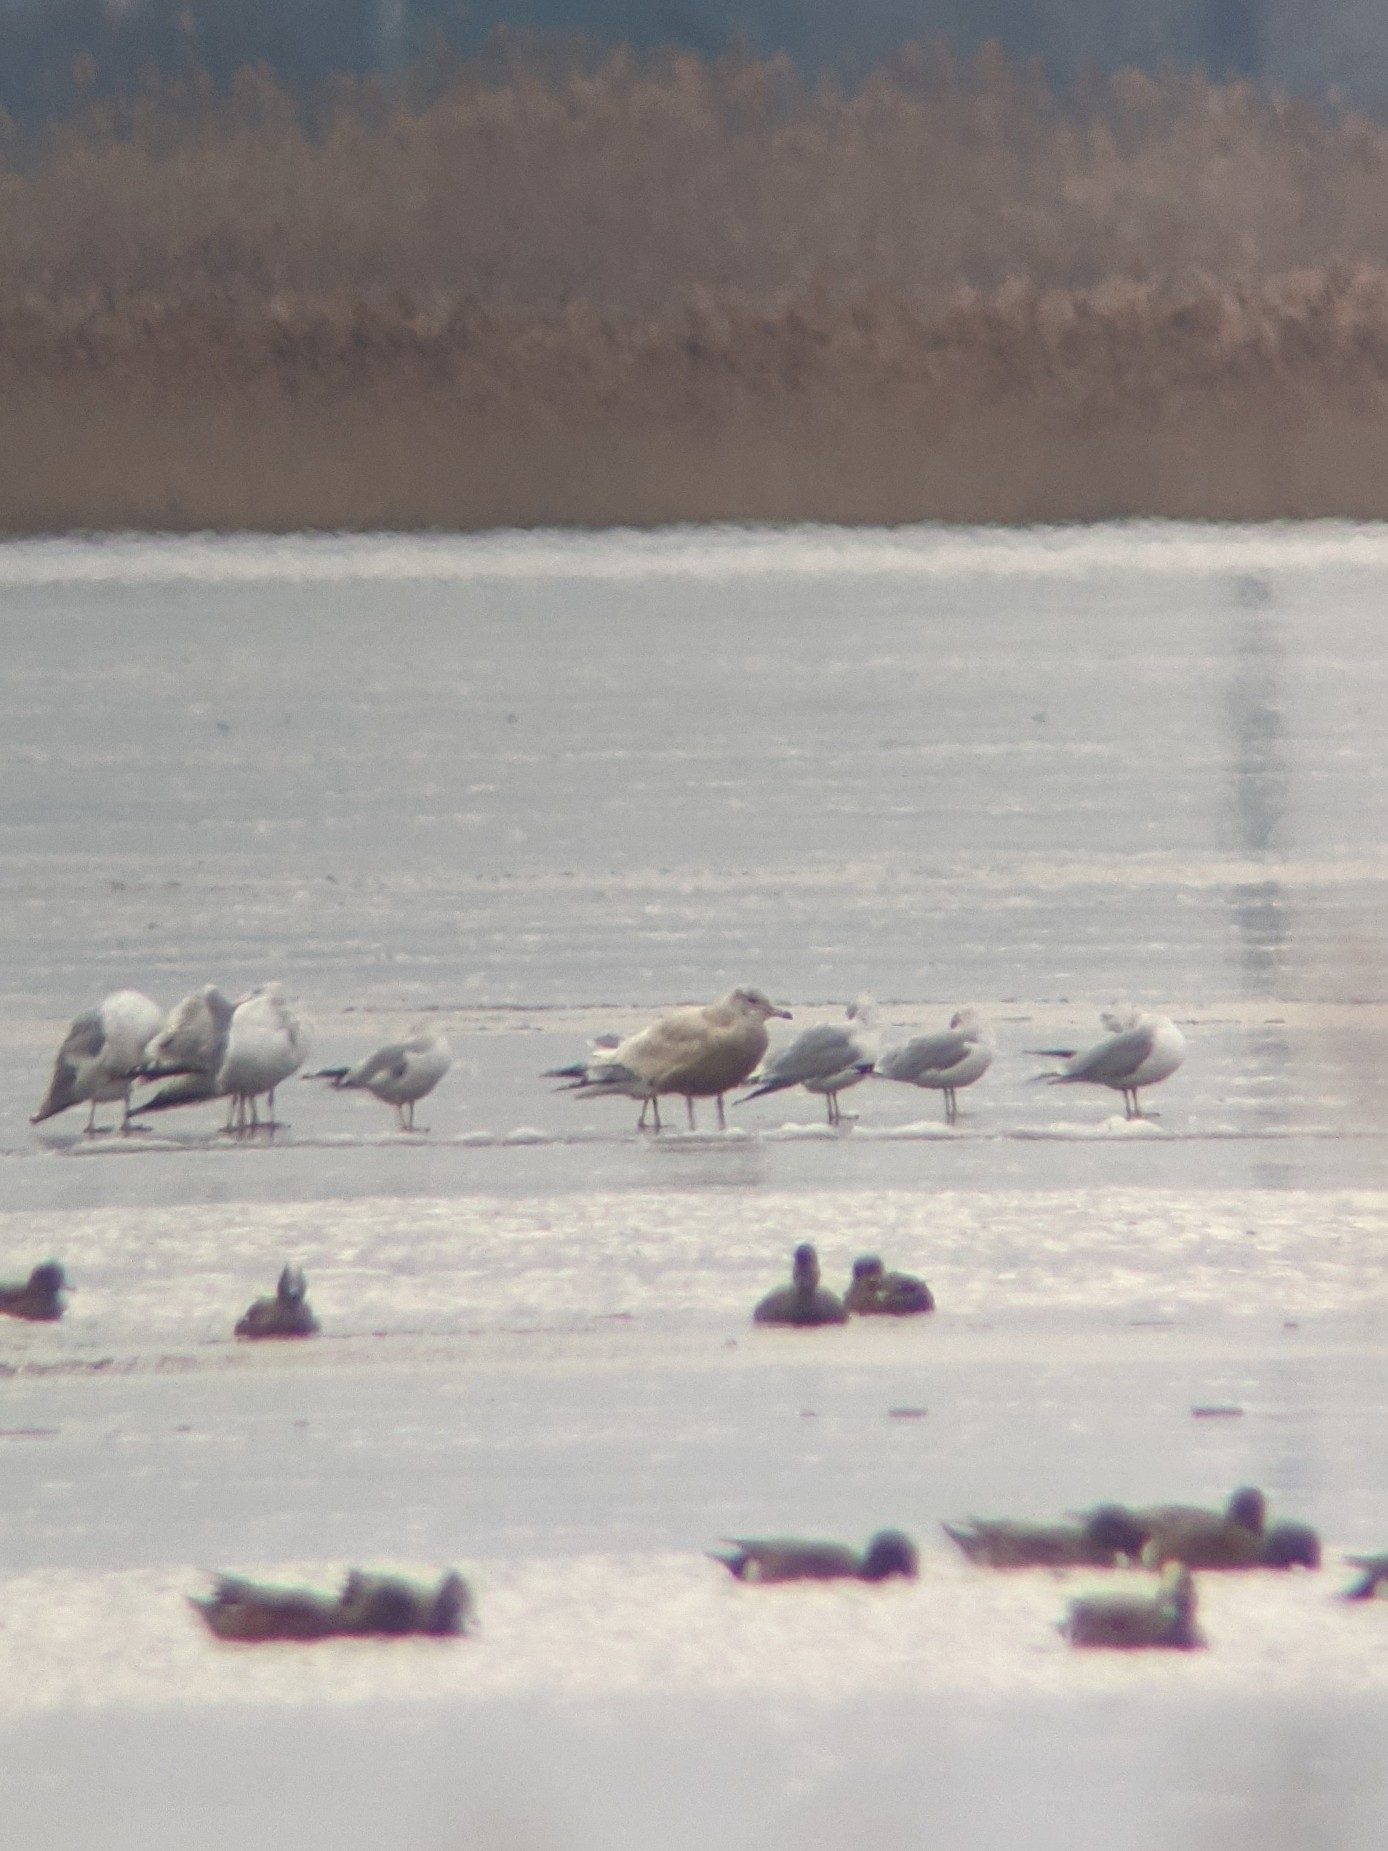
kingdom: Animalia
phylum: Chordata
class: Aves
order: Charadriiformes
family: Laridae
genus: Larus
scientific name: Larus hyperboreus
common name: Glaucous gull
